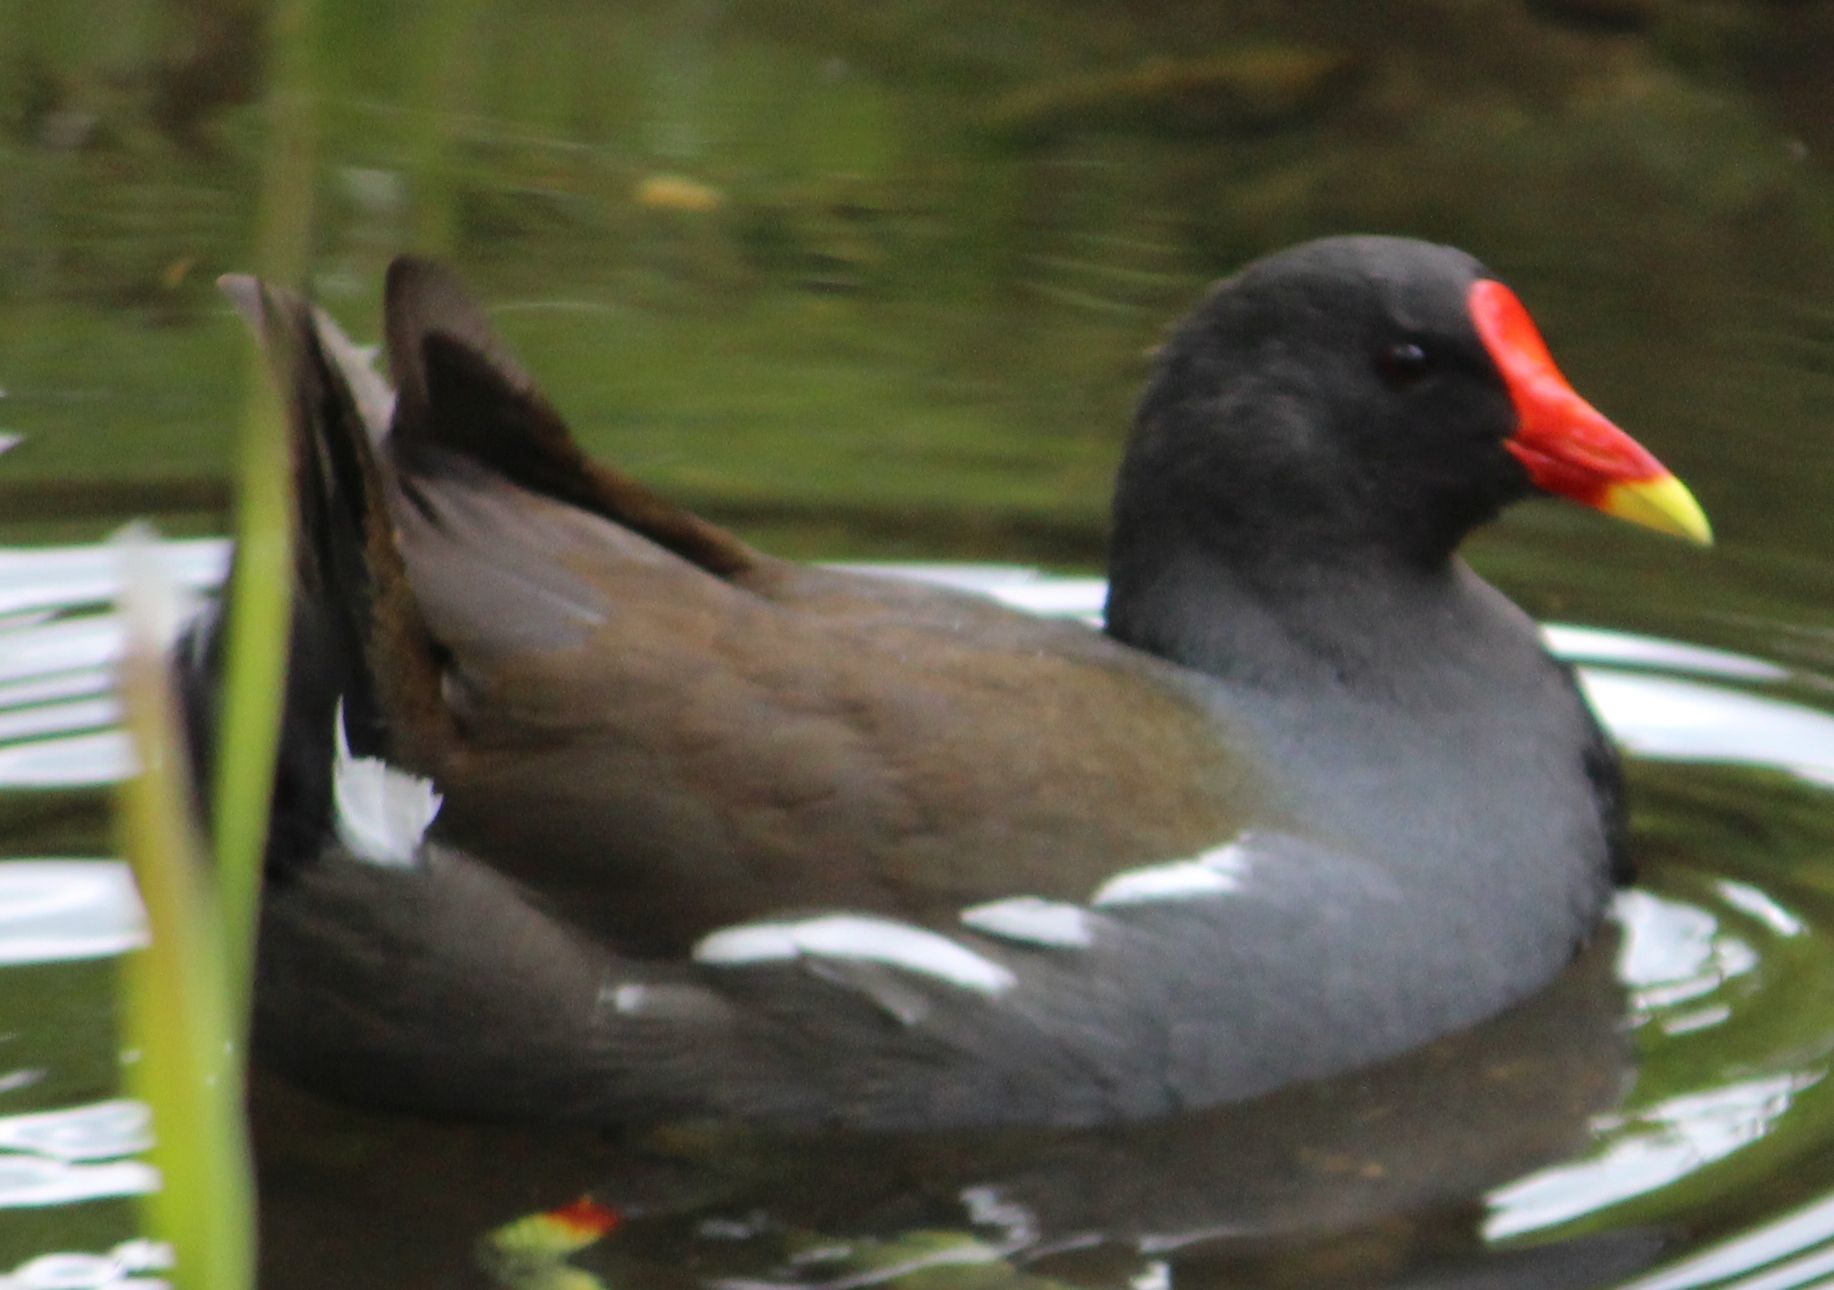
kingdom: Animalia
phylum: Chordata
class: Aves
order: Gruiformes
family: Rallidae
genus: Gallinula
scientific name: Gallinula chloropus
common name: Common moorhen
